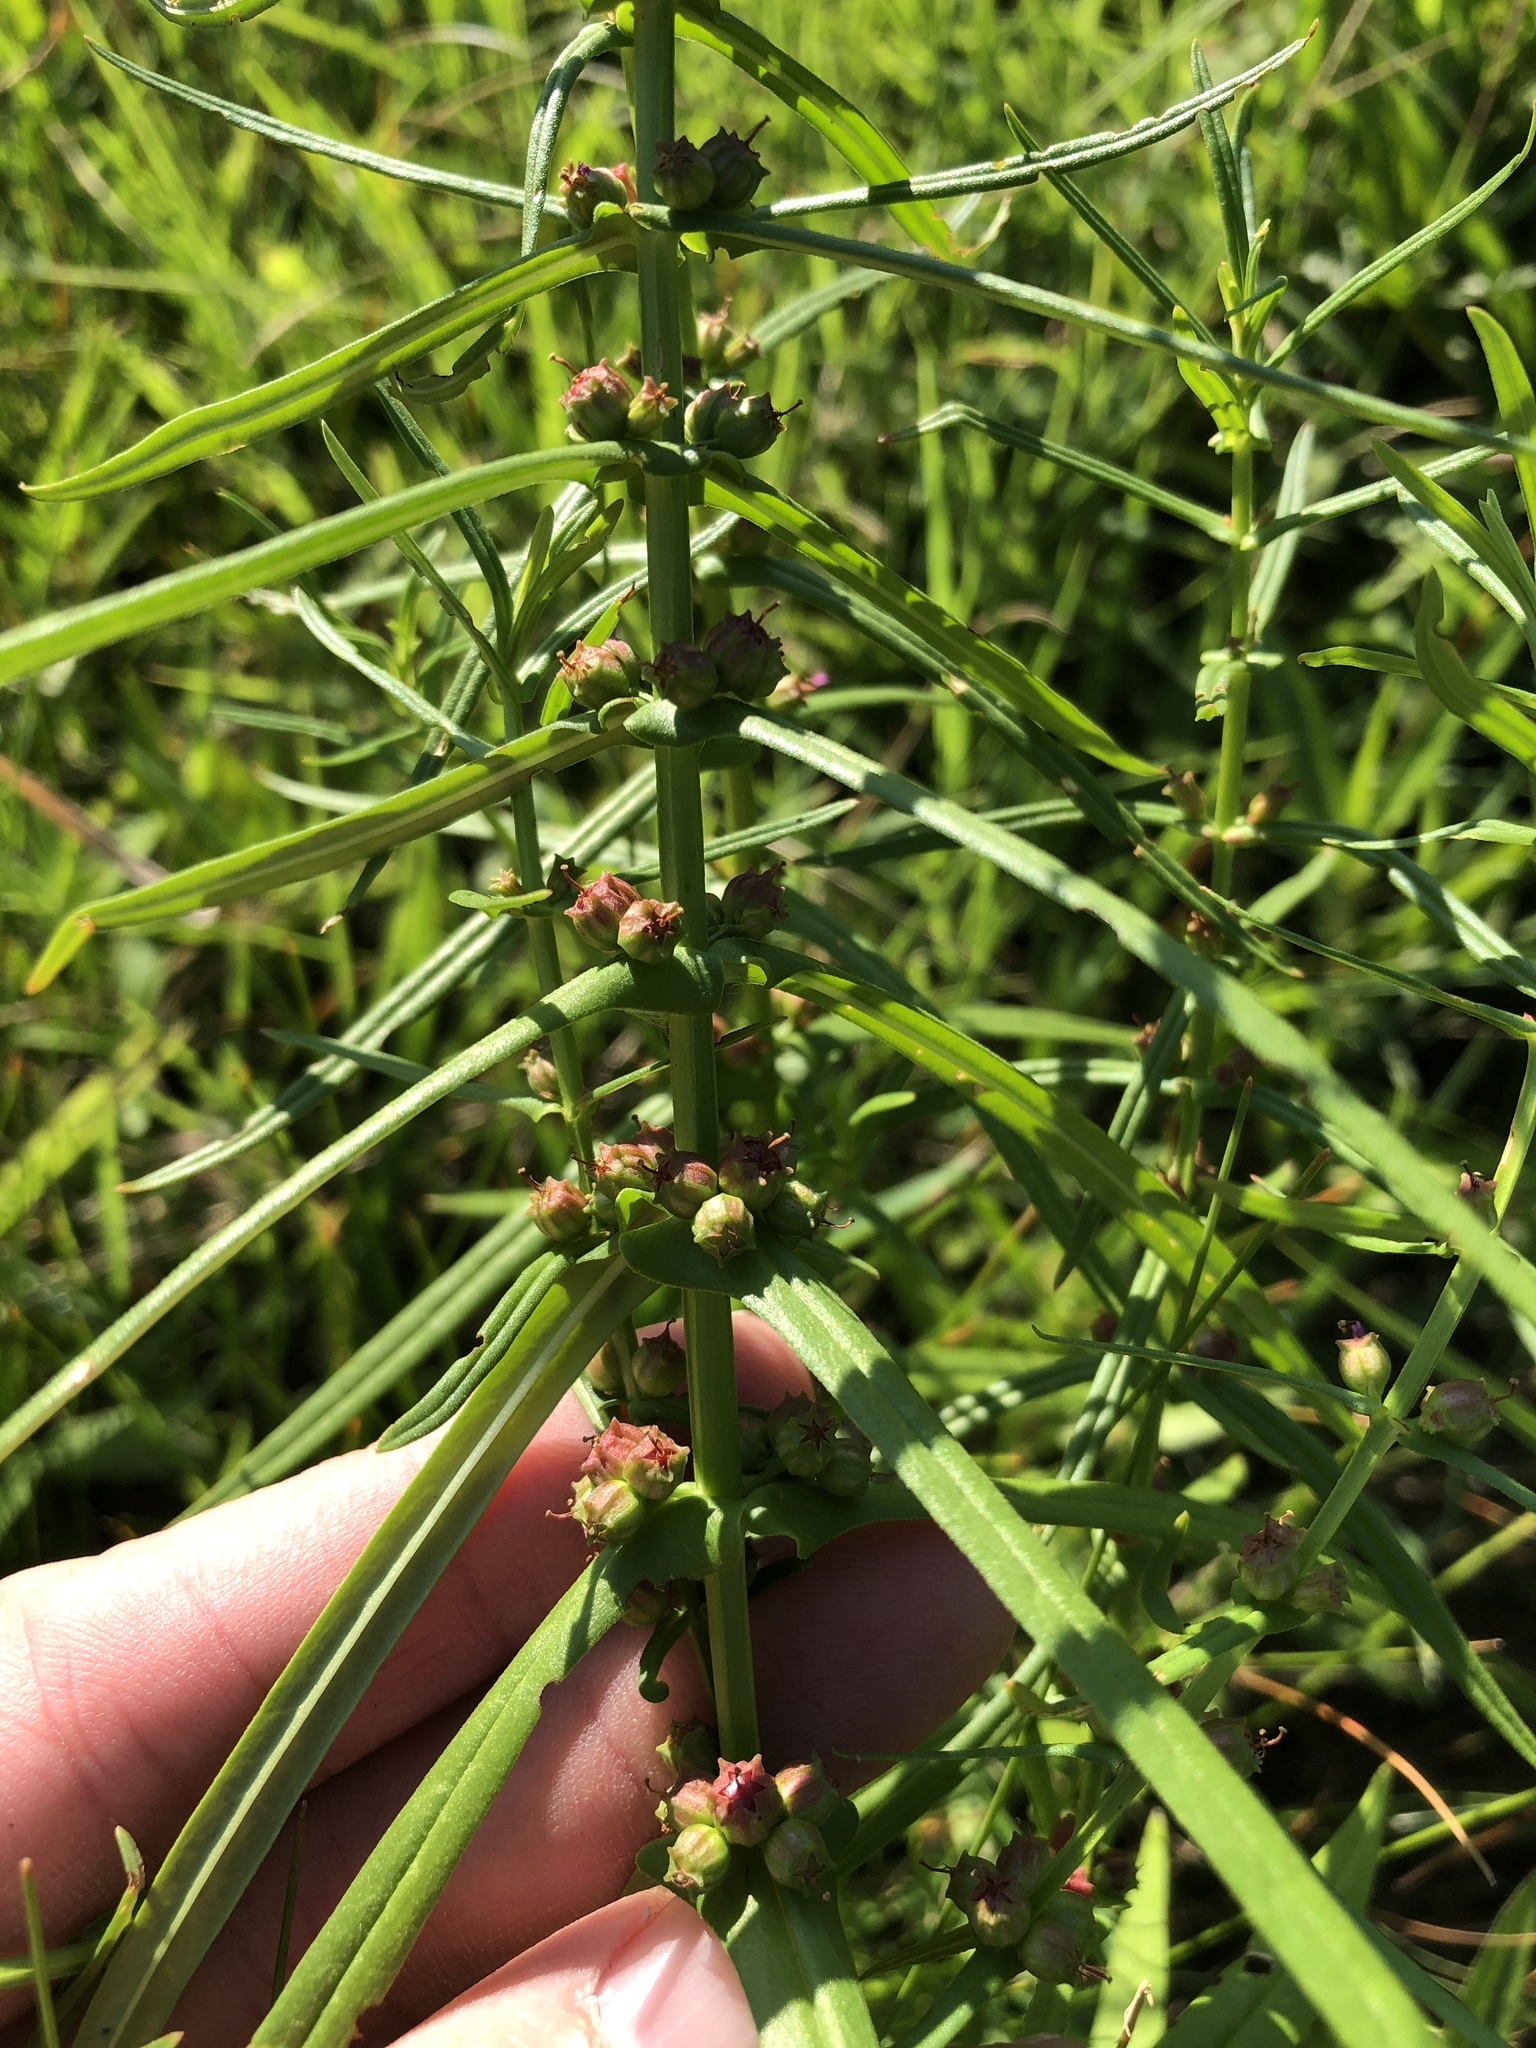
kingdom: Plantae
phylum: Tracheophyta
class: Magnoliopsida
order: Myrtales
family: Lythraceae
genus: Ammannia
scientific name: Ammannia coccinea
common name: Valley redstem
